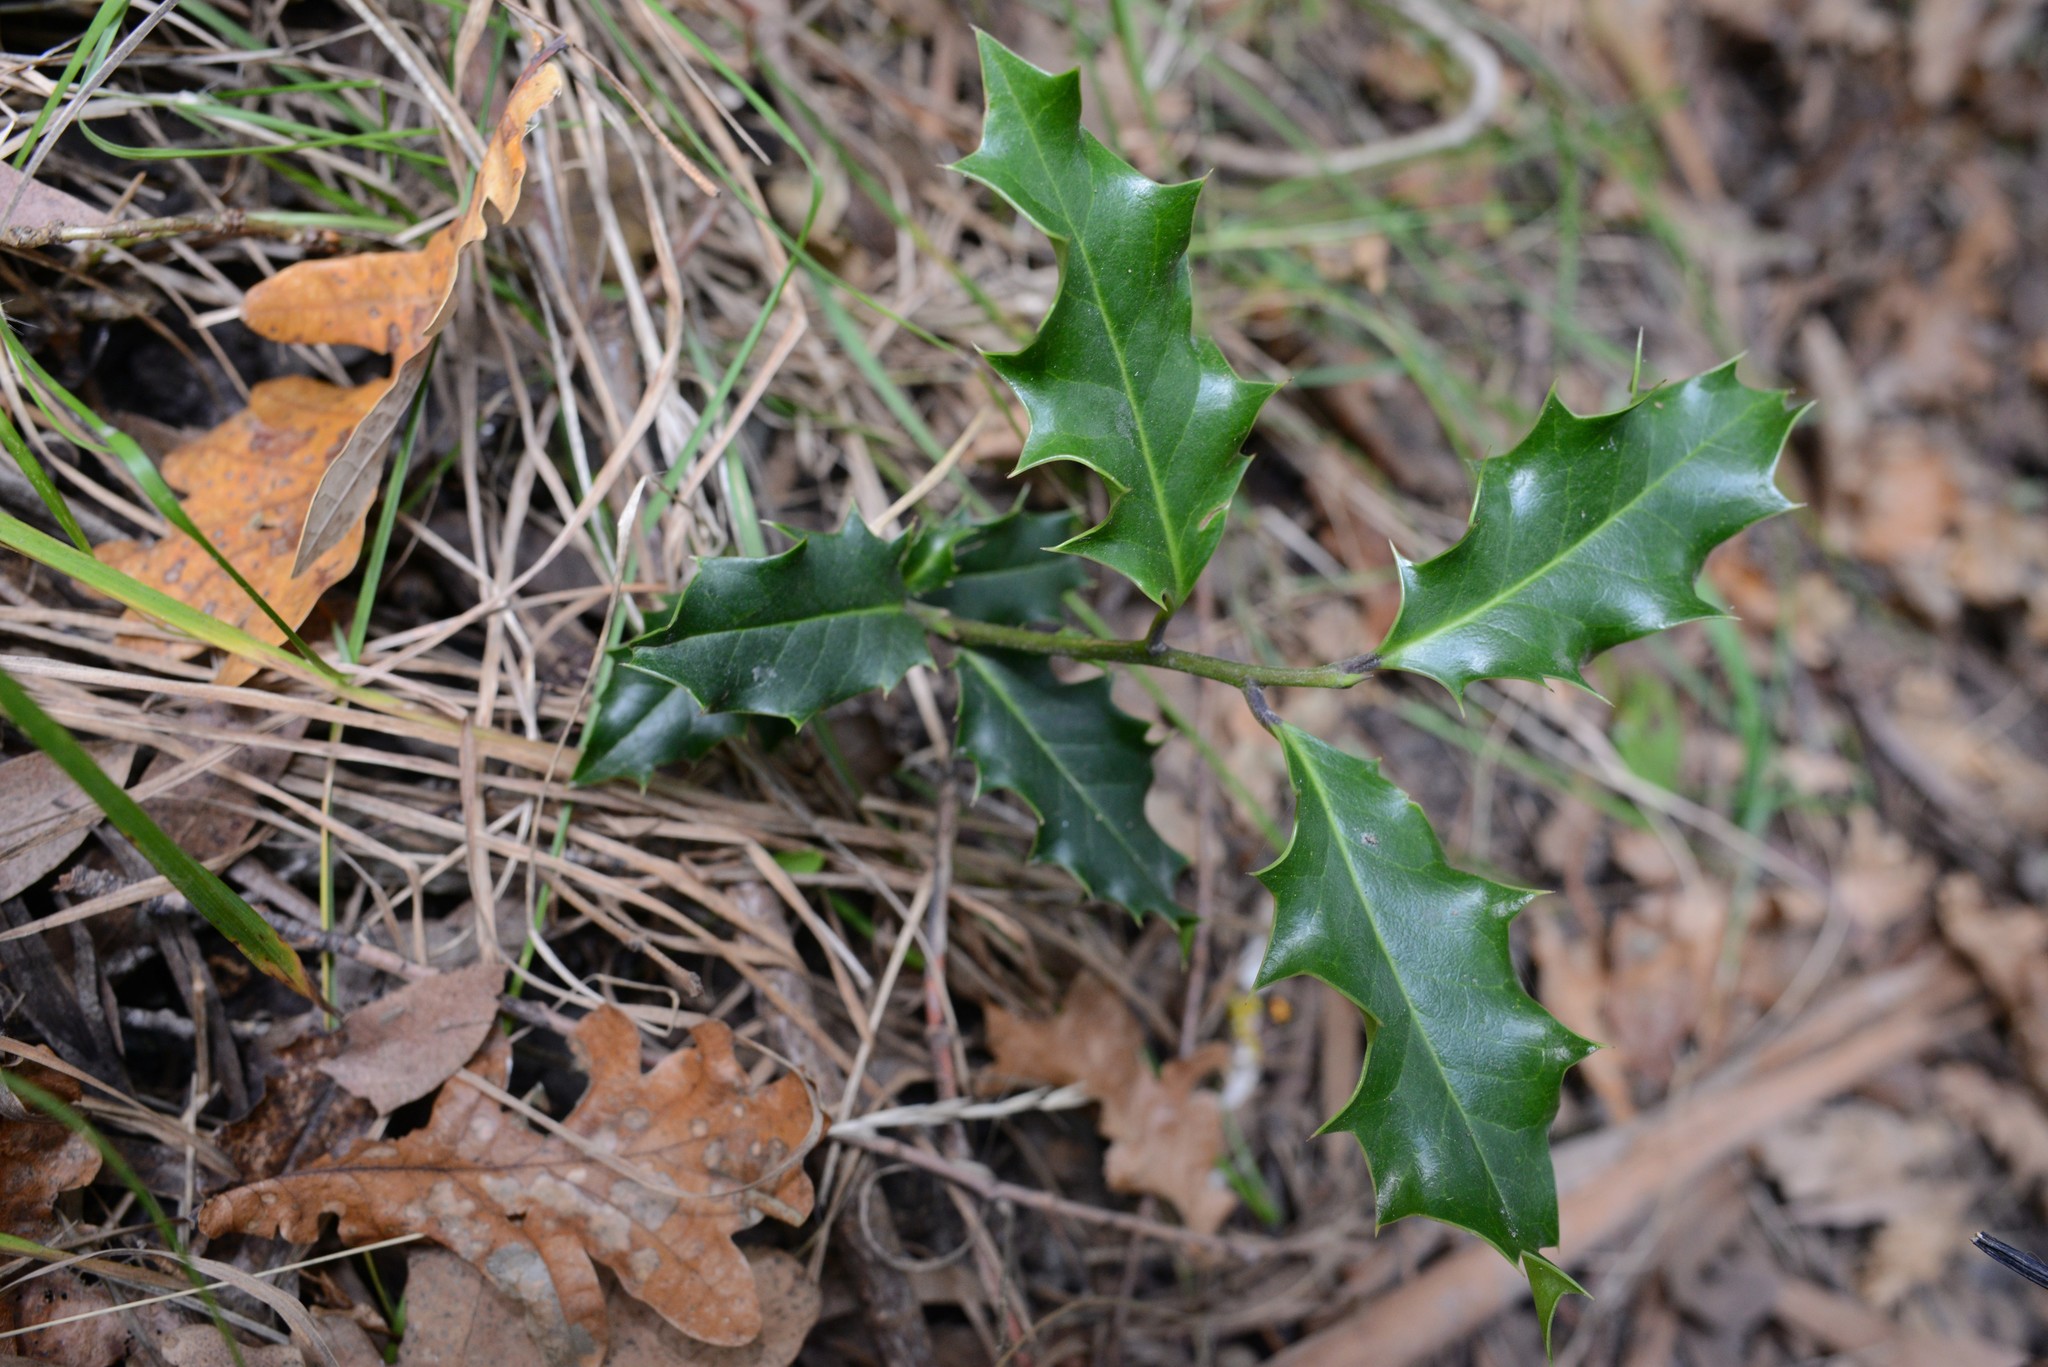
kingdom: Plantae
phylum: Tracheophyta
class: Magnoliopsida
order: Aquifoliales
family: Aquifoliaceae
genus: Ilex
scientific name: Ilex aquifolium
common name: English holly
